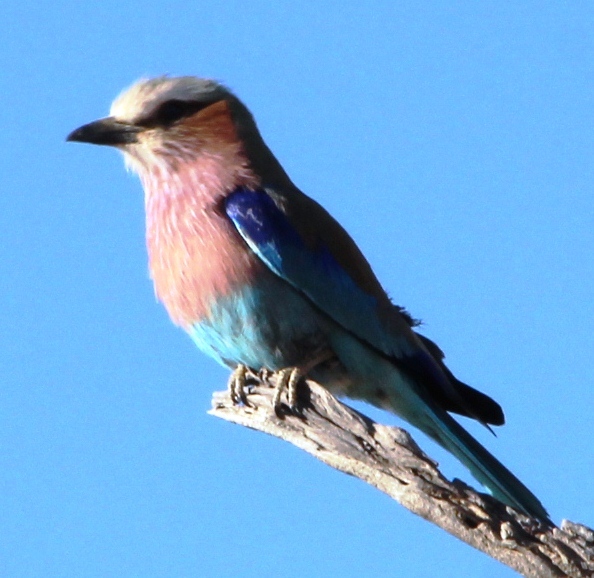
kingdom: Animalia
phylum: Chordata
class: Aves
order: Coraciiformes
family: Coraciidae
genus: Coracias
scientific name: Coracias caudatus
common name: Lilac-breasted roller
